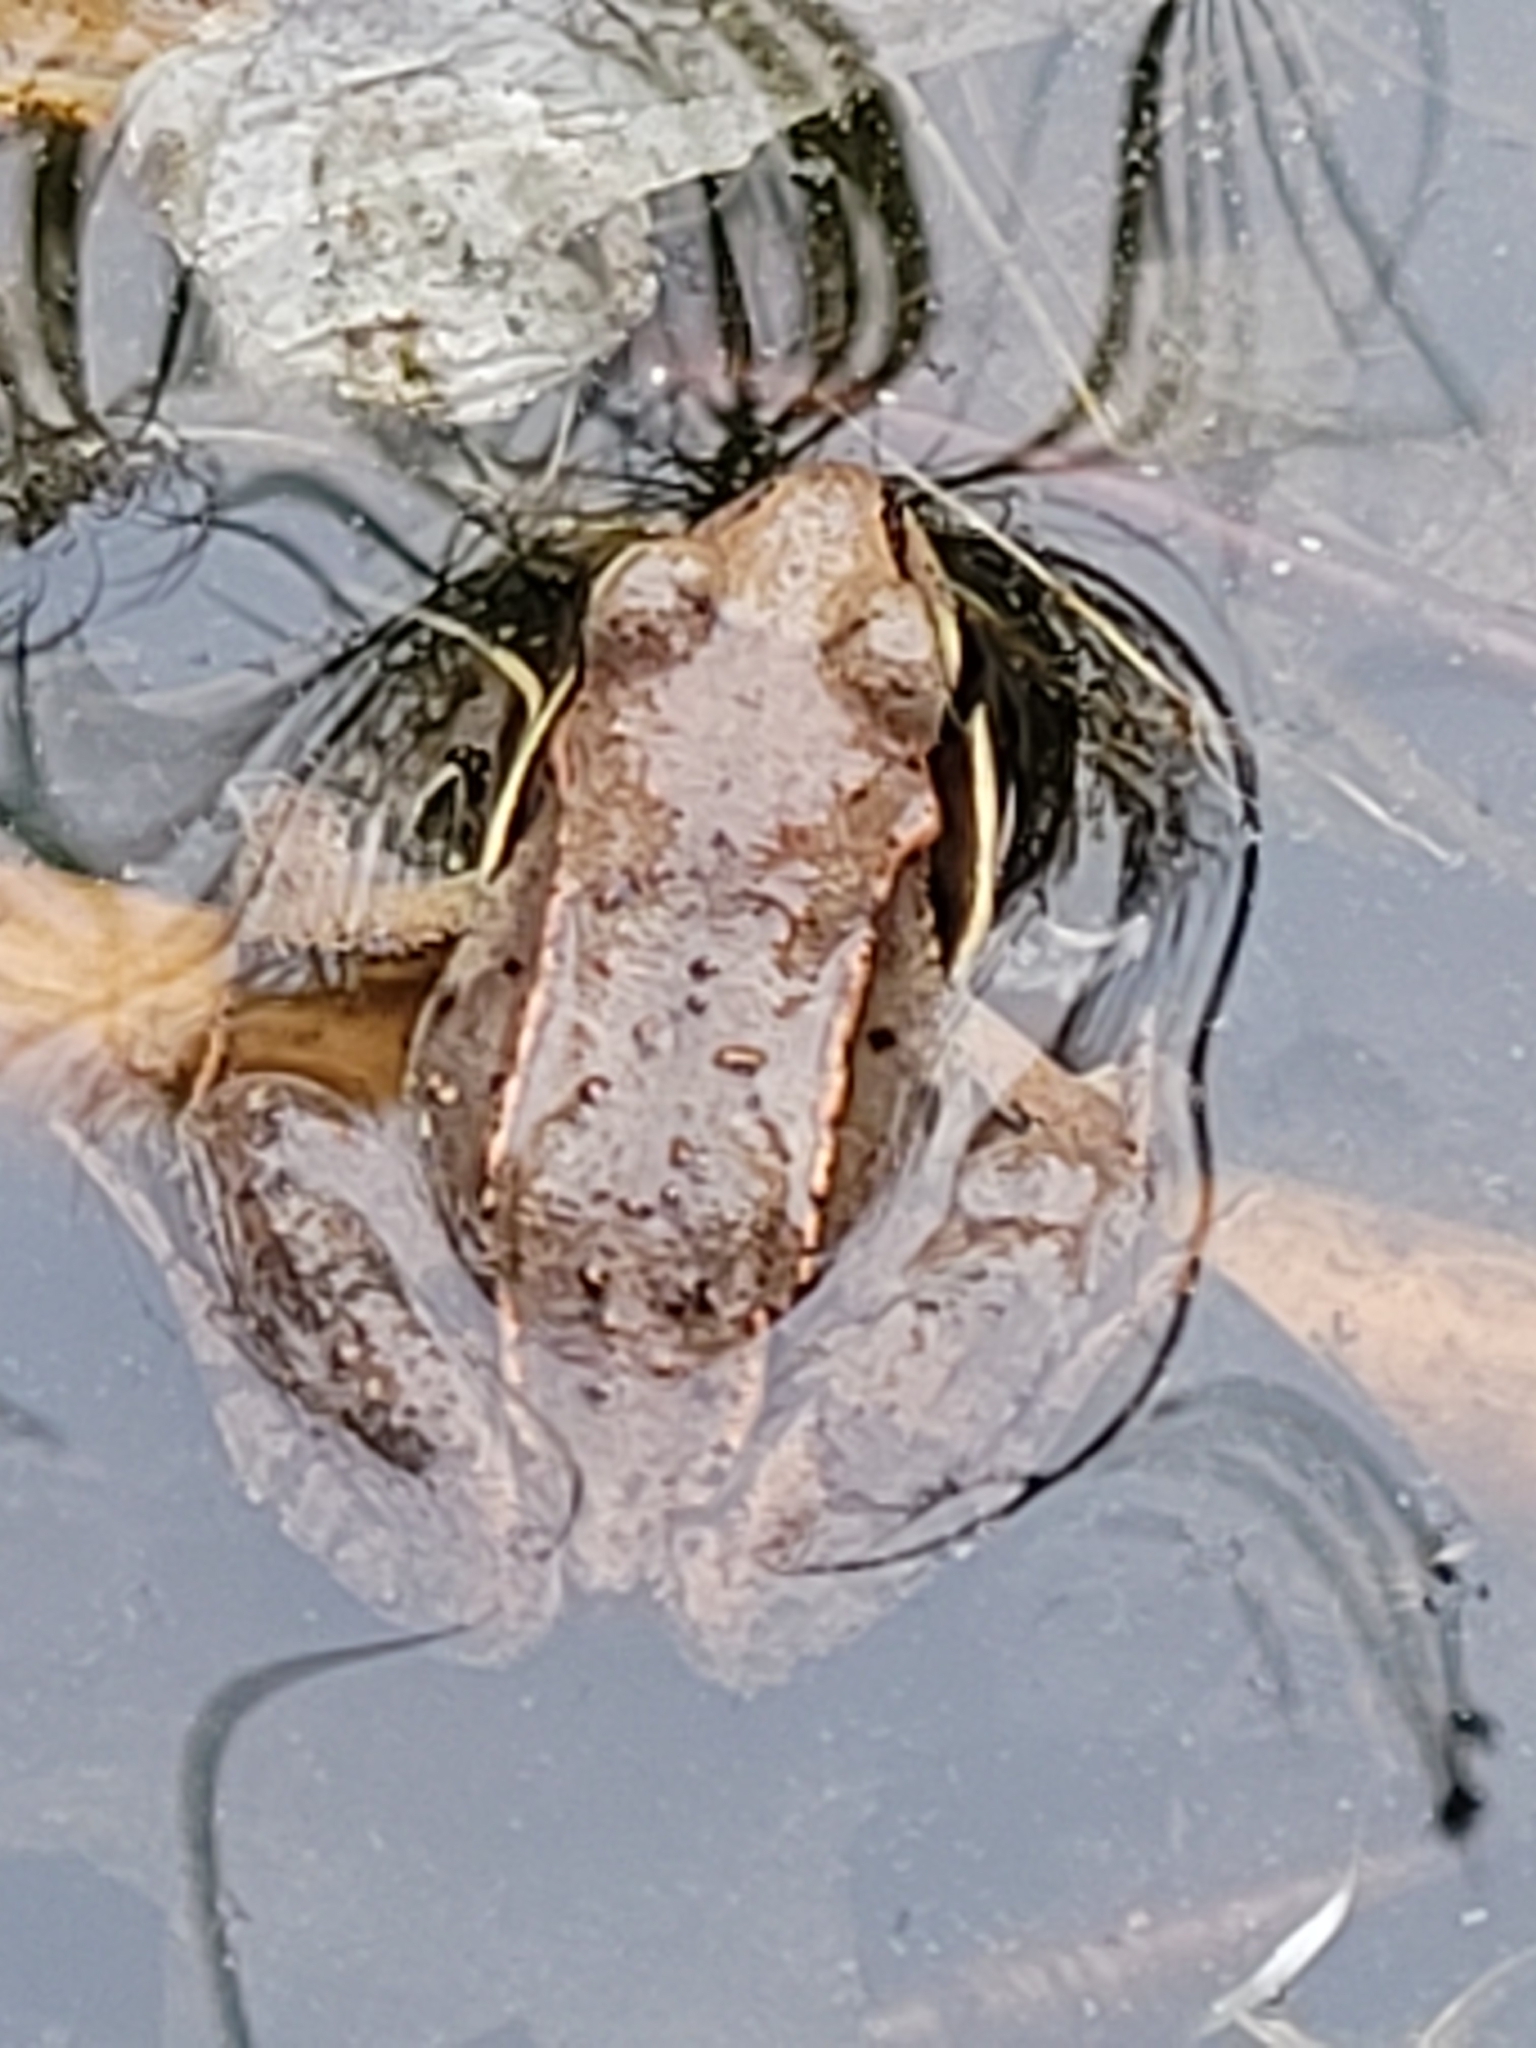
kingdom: Animalia
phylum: Chordata
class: Amphibia
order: Anura
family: Ranidae
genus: Lithobates
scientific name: Lithobates sylvaticus
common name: Wood frog
